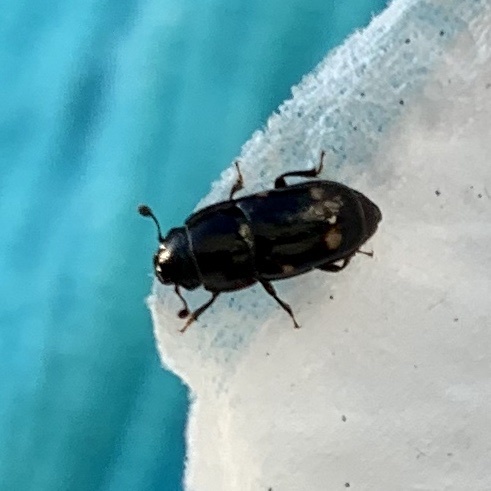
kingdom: Animalia
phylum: Arthropoda
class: Insecta
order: Coleoptera
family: Nitidulidae
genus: Glischrochilus
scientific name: Glischrochilus quadrisignatus
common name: Picnic beetle
